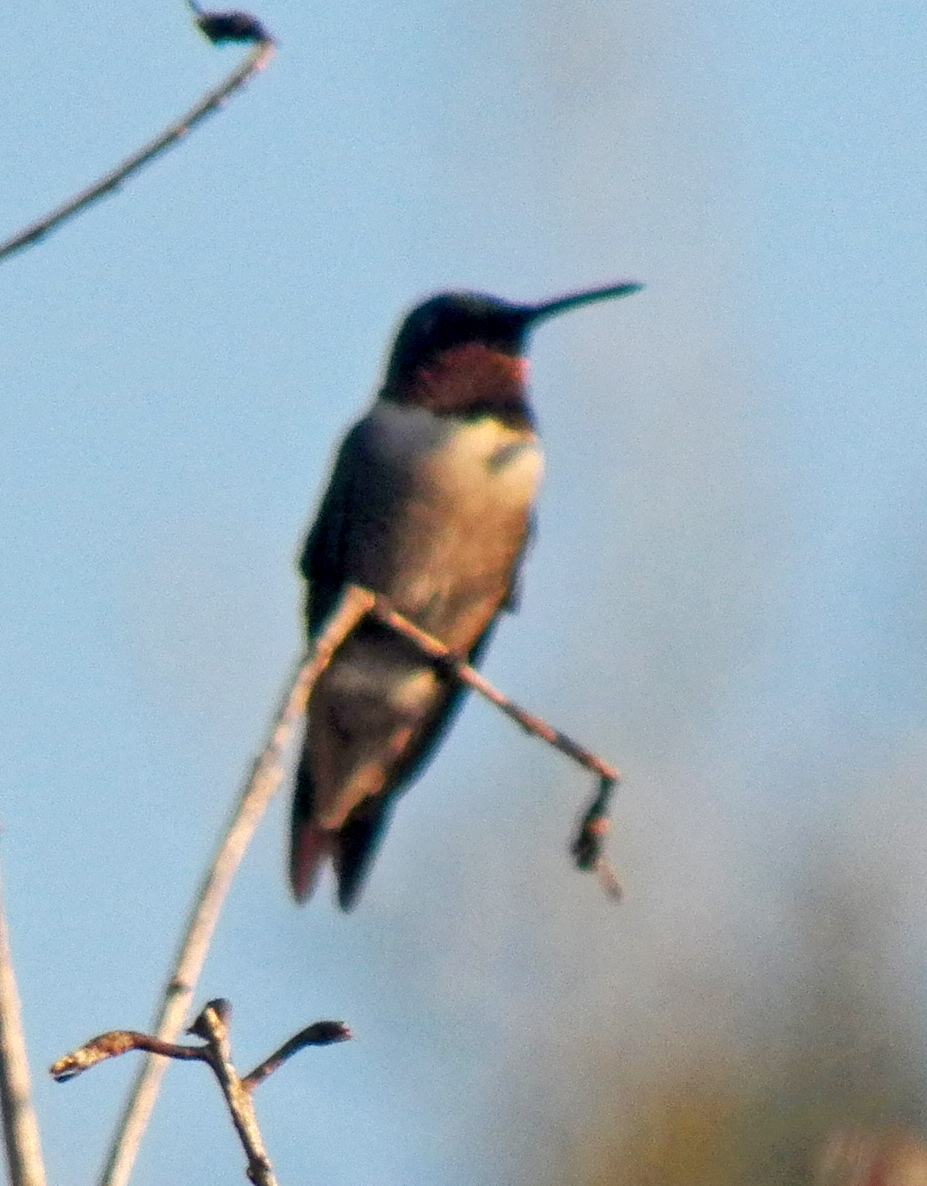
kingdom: Animalia
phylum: Chordata
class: Aves
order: Apodiformes
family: Trochilidae
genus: Archilochus
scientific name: Archilochus alexandri
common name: Black-chinned hummingbird
